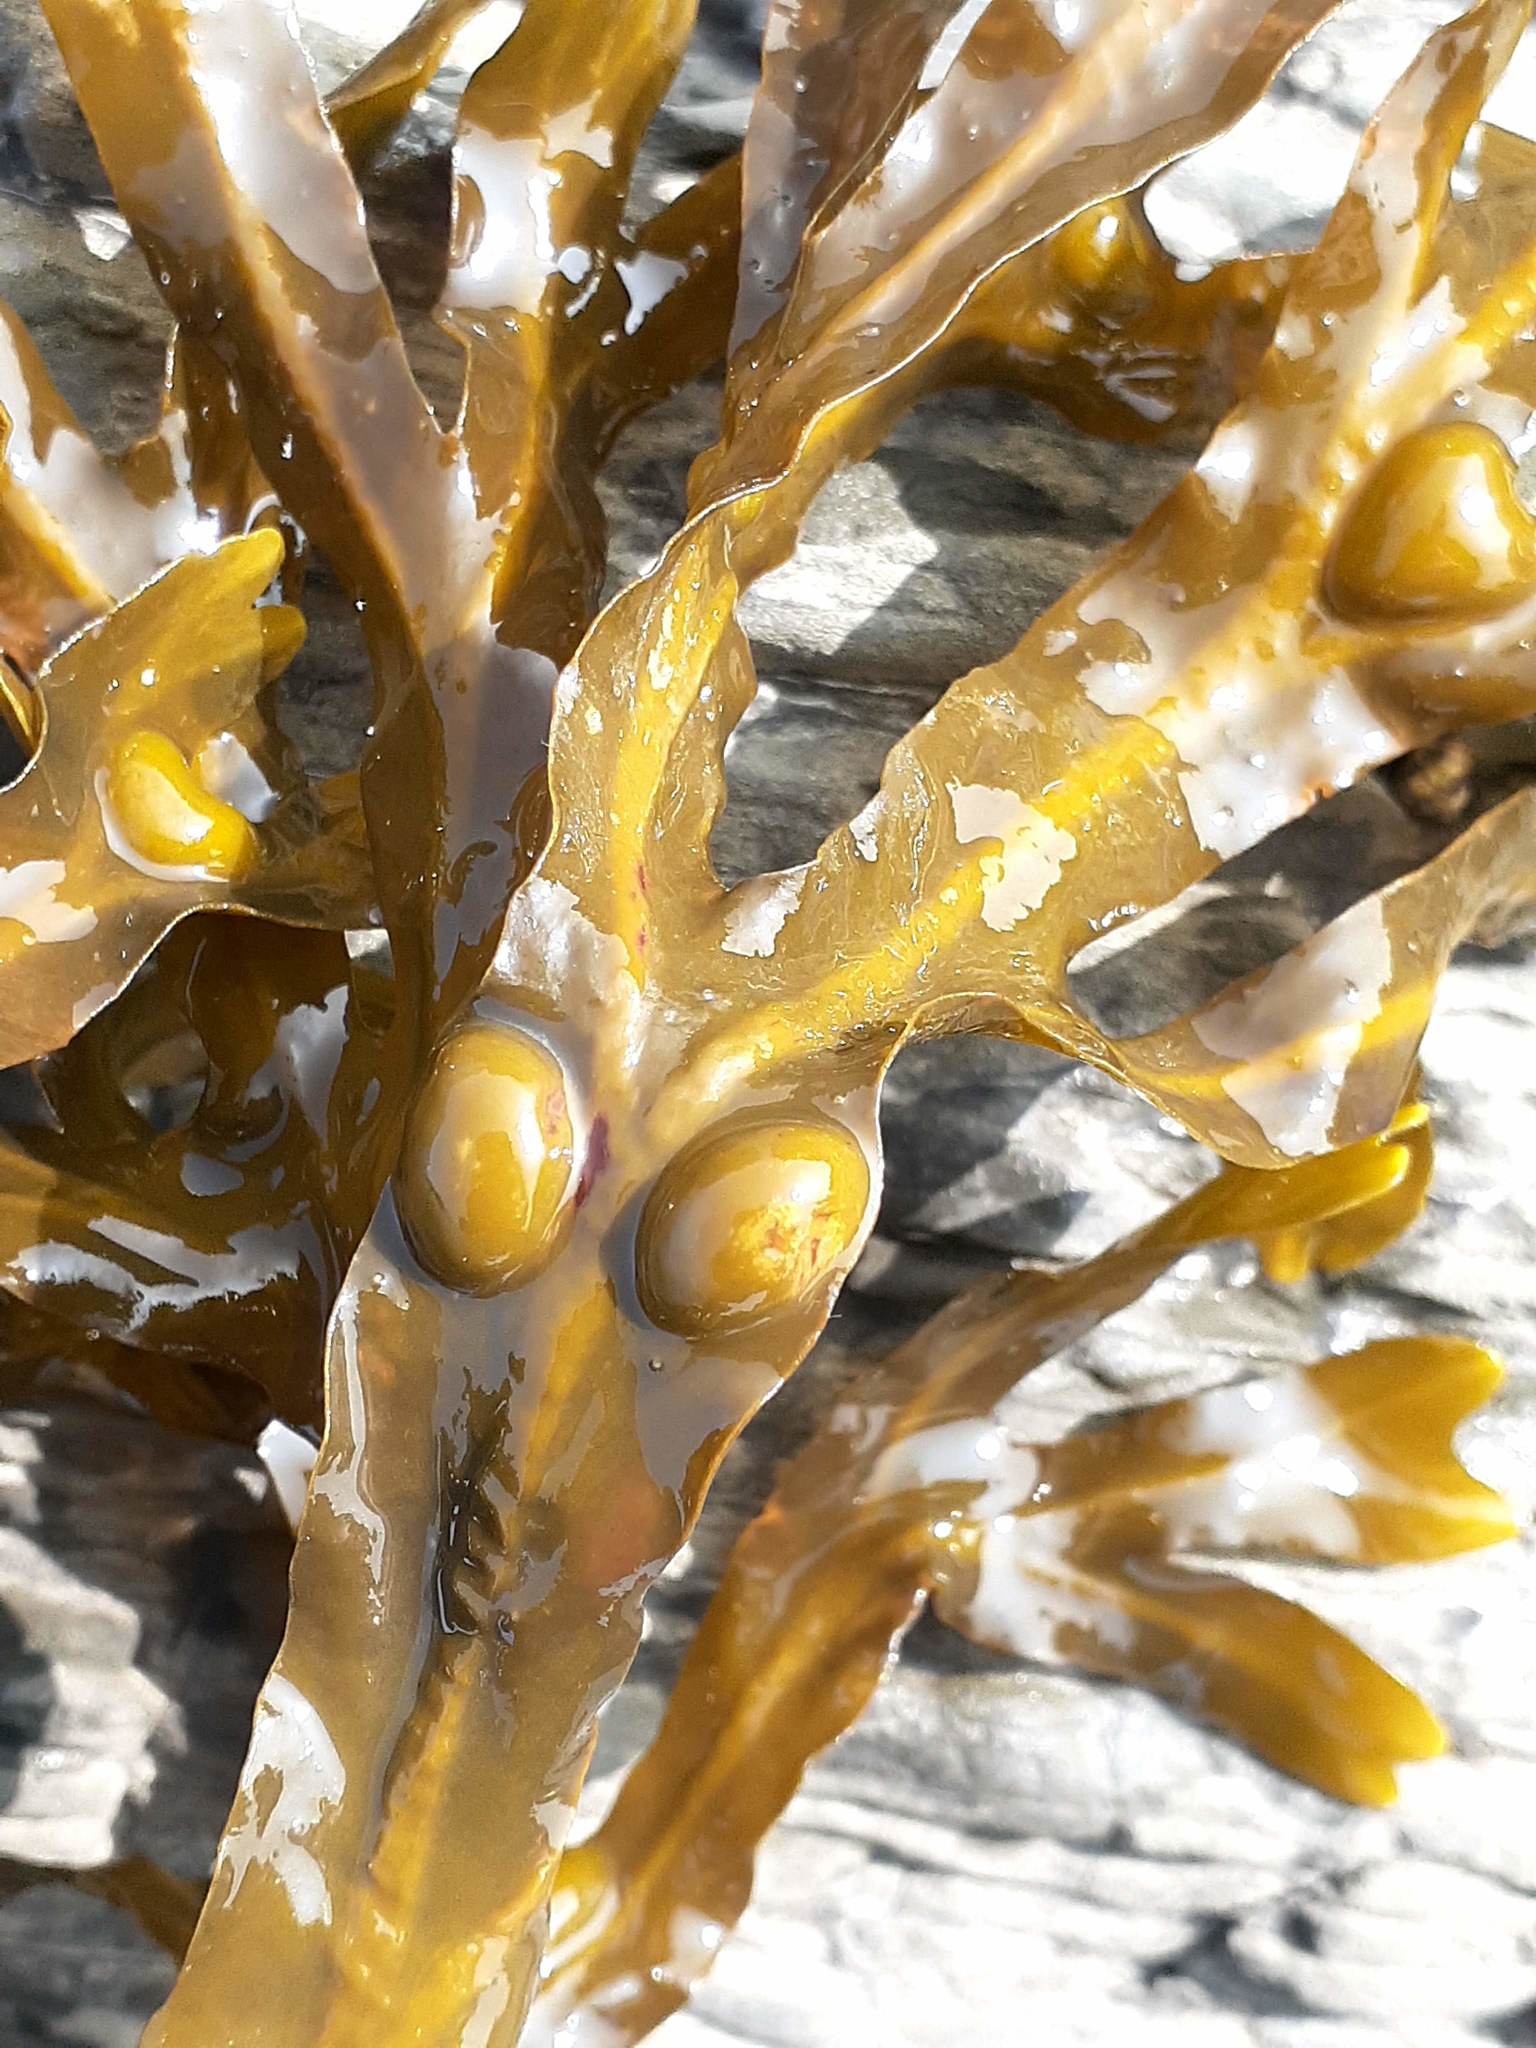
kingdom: Chromista
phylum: Ochrophyta
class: Phaeophyceae
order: Fucales
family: Fucaceae
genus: Fucus
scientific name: Fucus vesiculosus
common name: Bladder wrack
